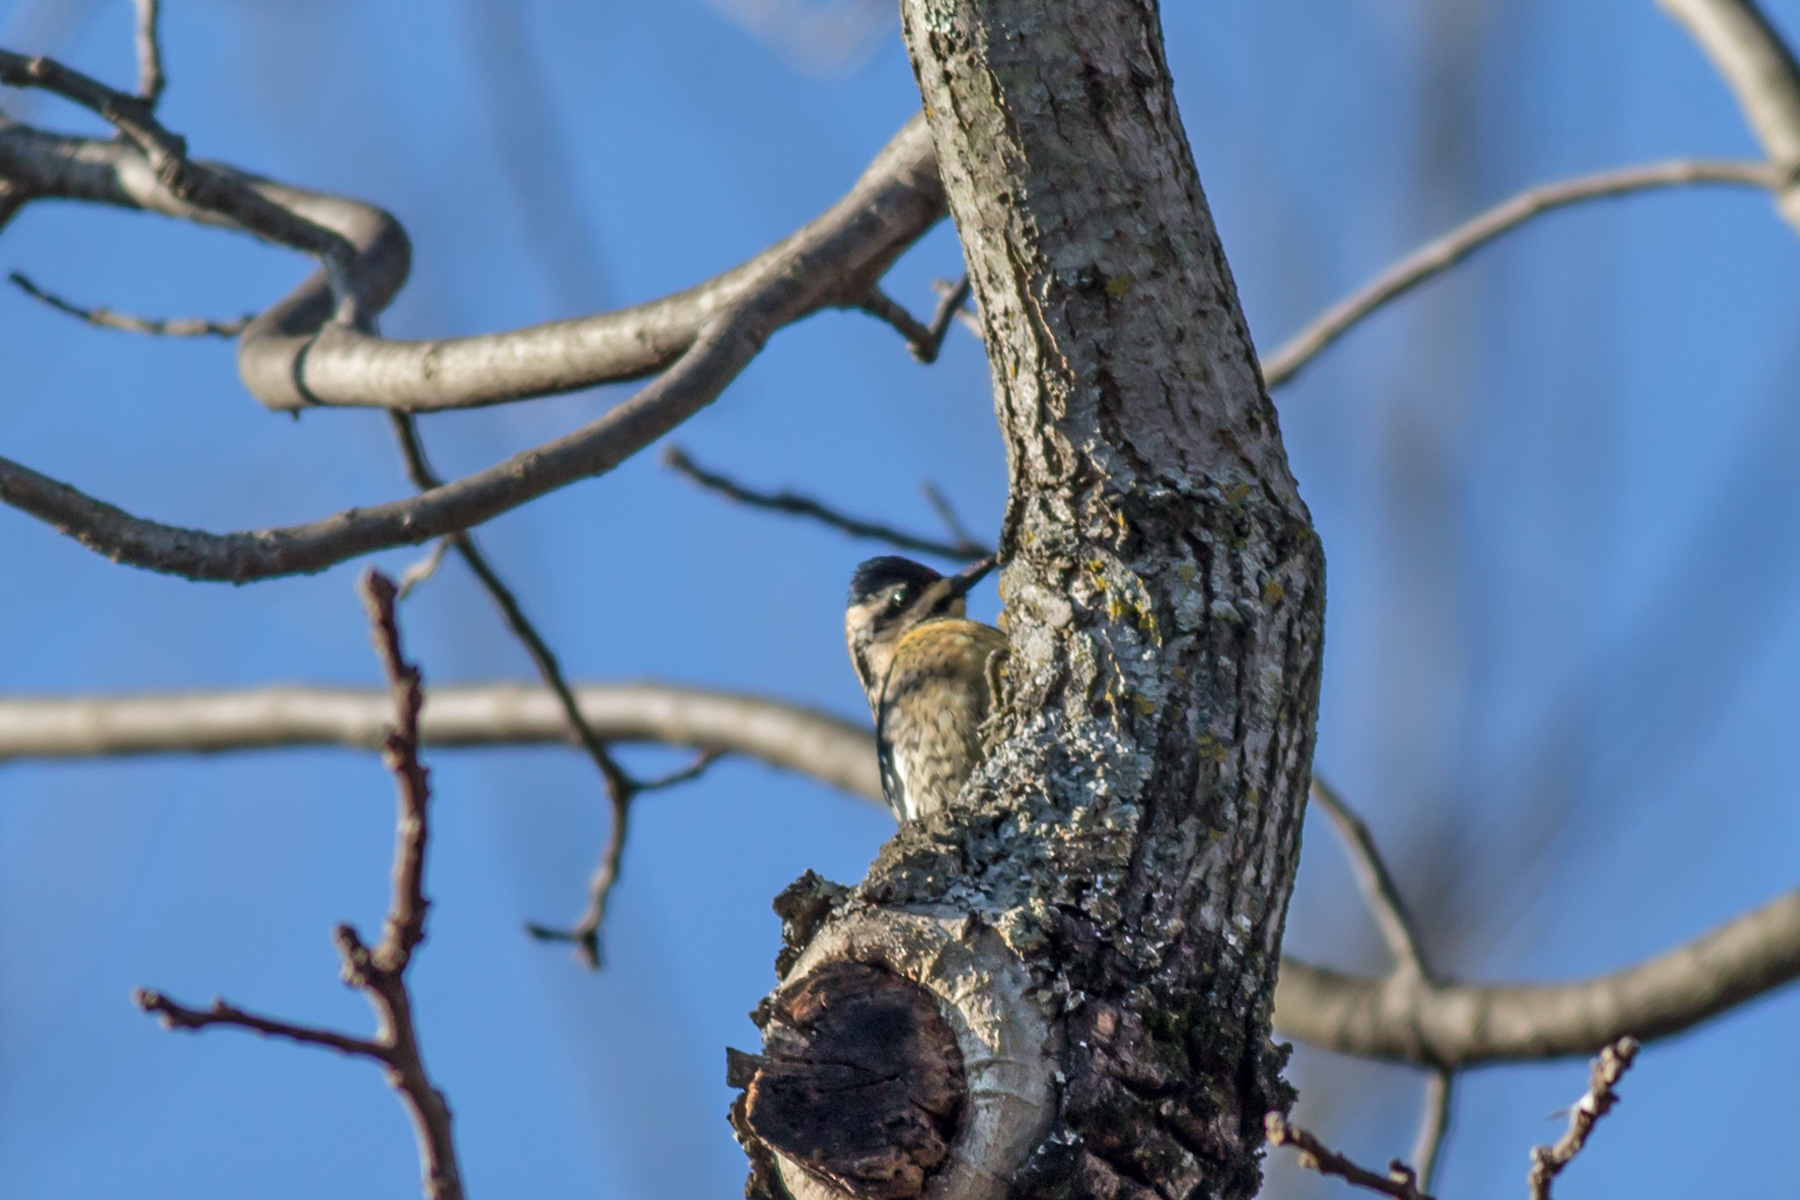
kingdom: Animalia
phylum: Chordata
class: Aves
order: Piciformes
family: Picidae
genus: Sphyrapicus
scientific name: Sphyrapicus varius
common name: Yellow-bellied sapsucker
